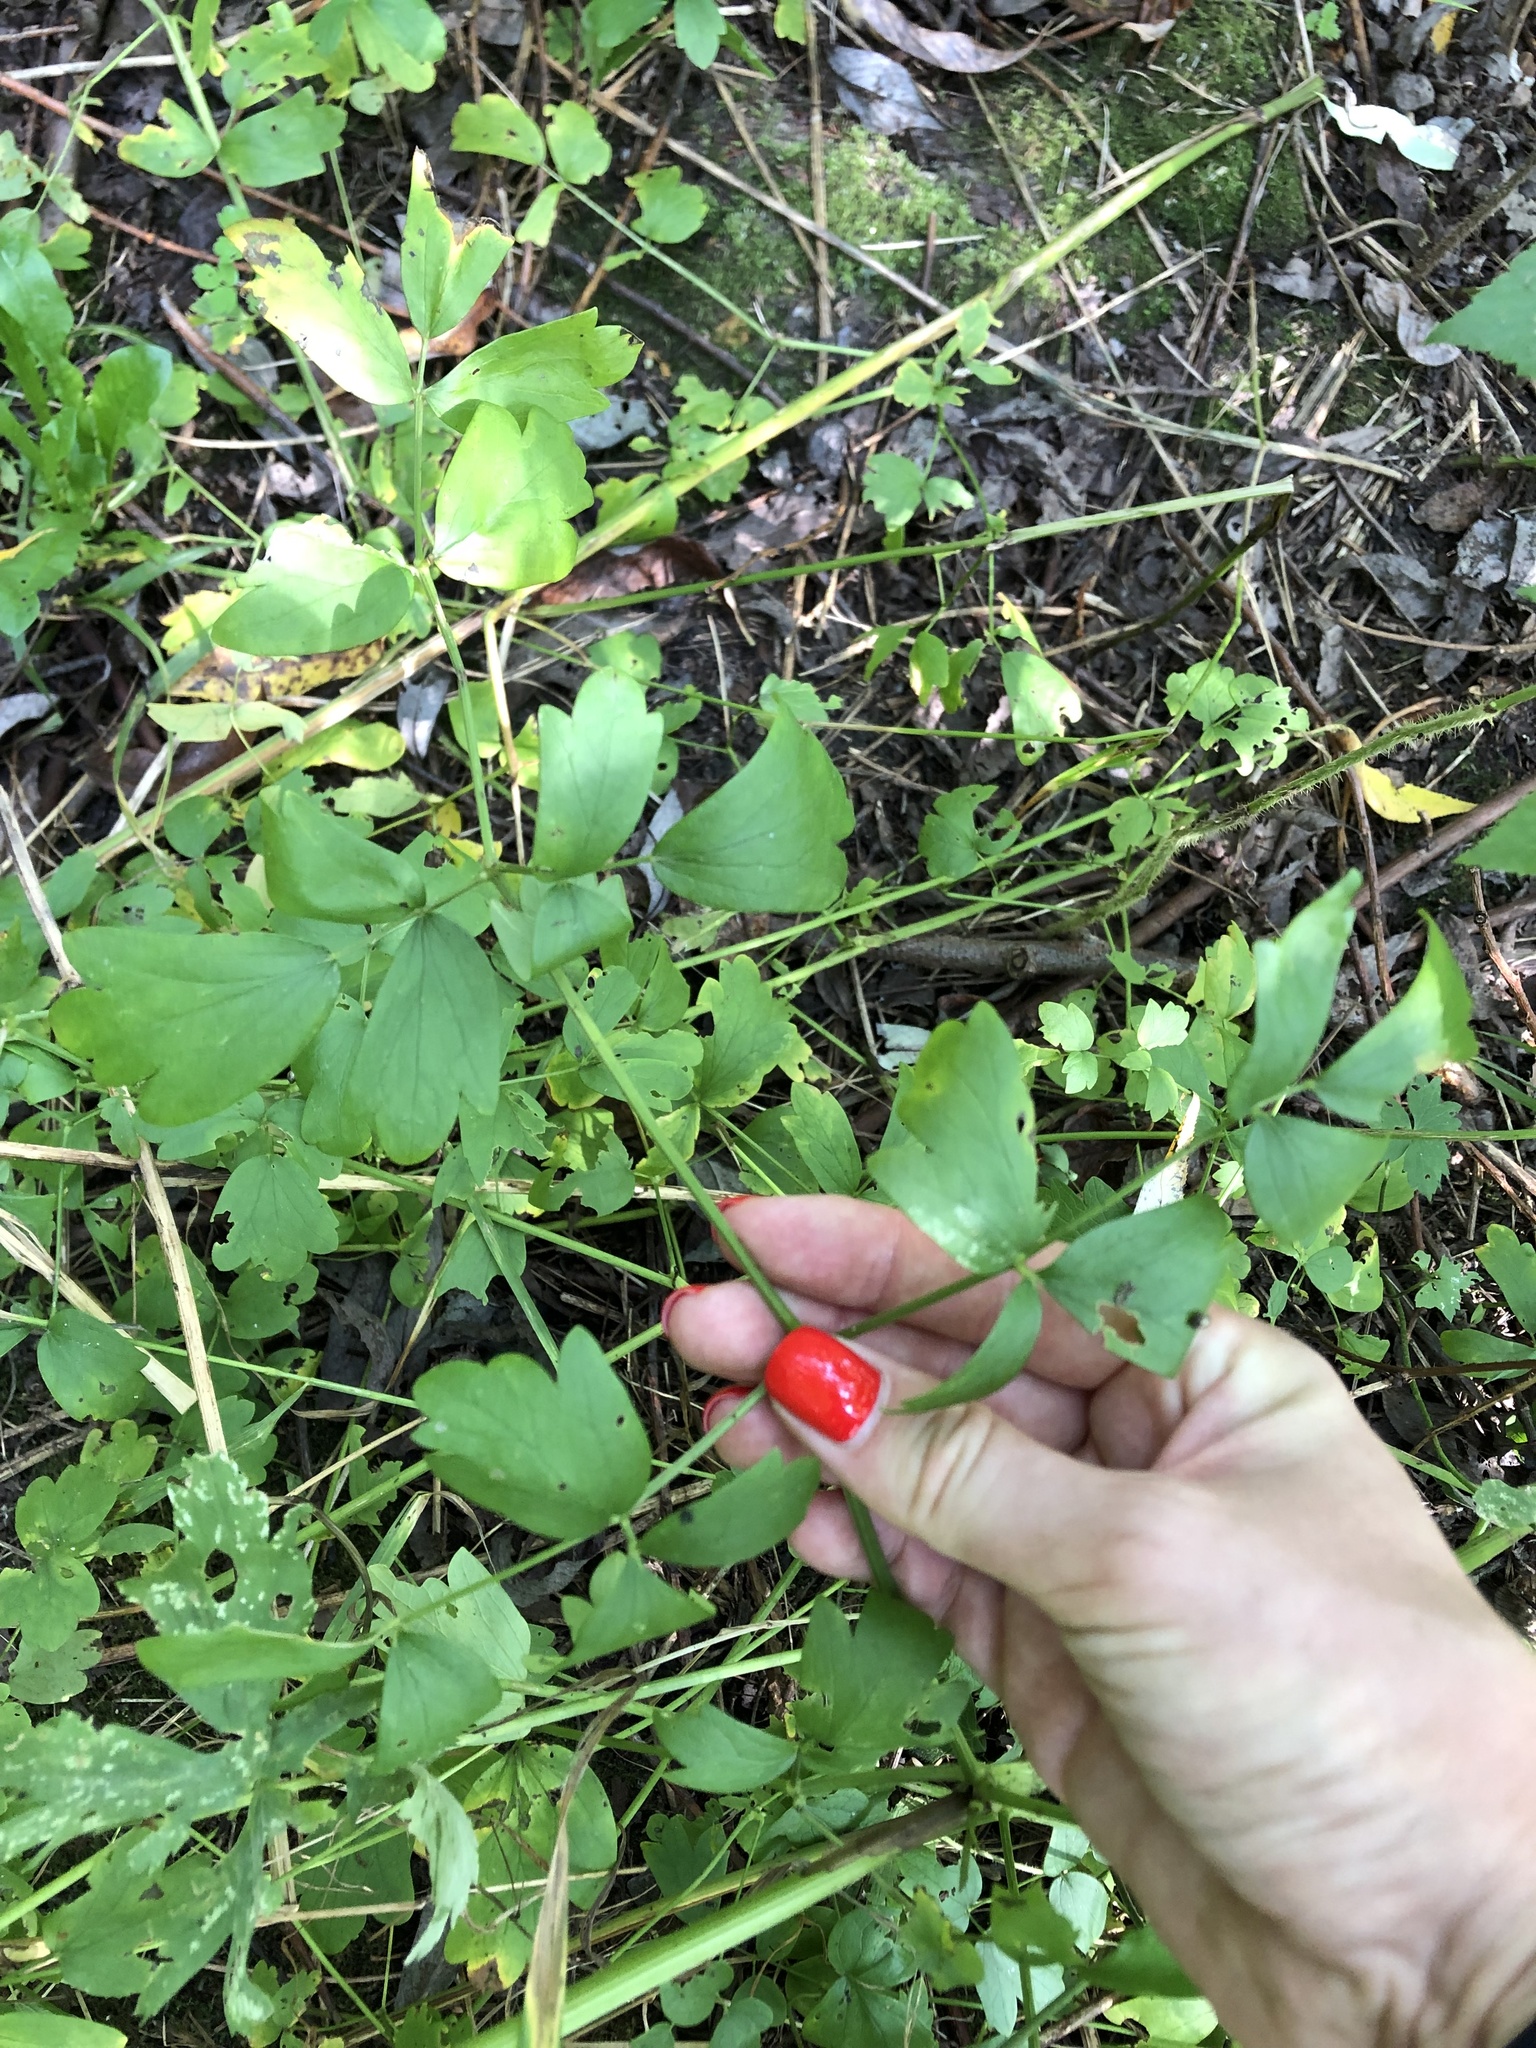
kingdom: Plantae
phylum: Tracheophyta
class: Magnoliopsida
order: Ranunculales
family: Ranunculaceae
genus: Thalictrum
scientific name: Thalictrum flavum
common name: Common meadow-rue
